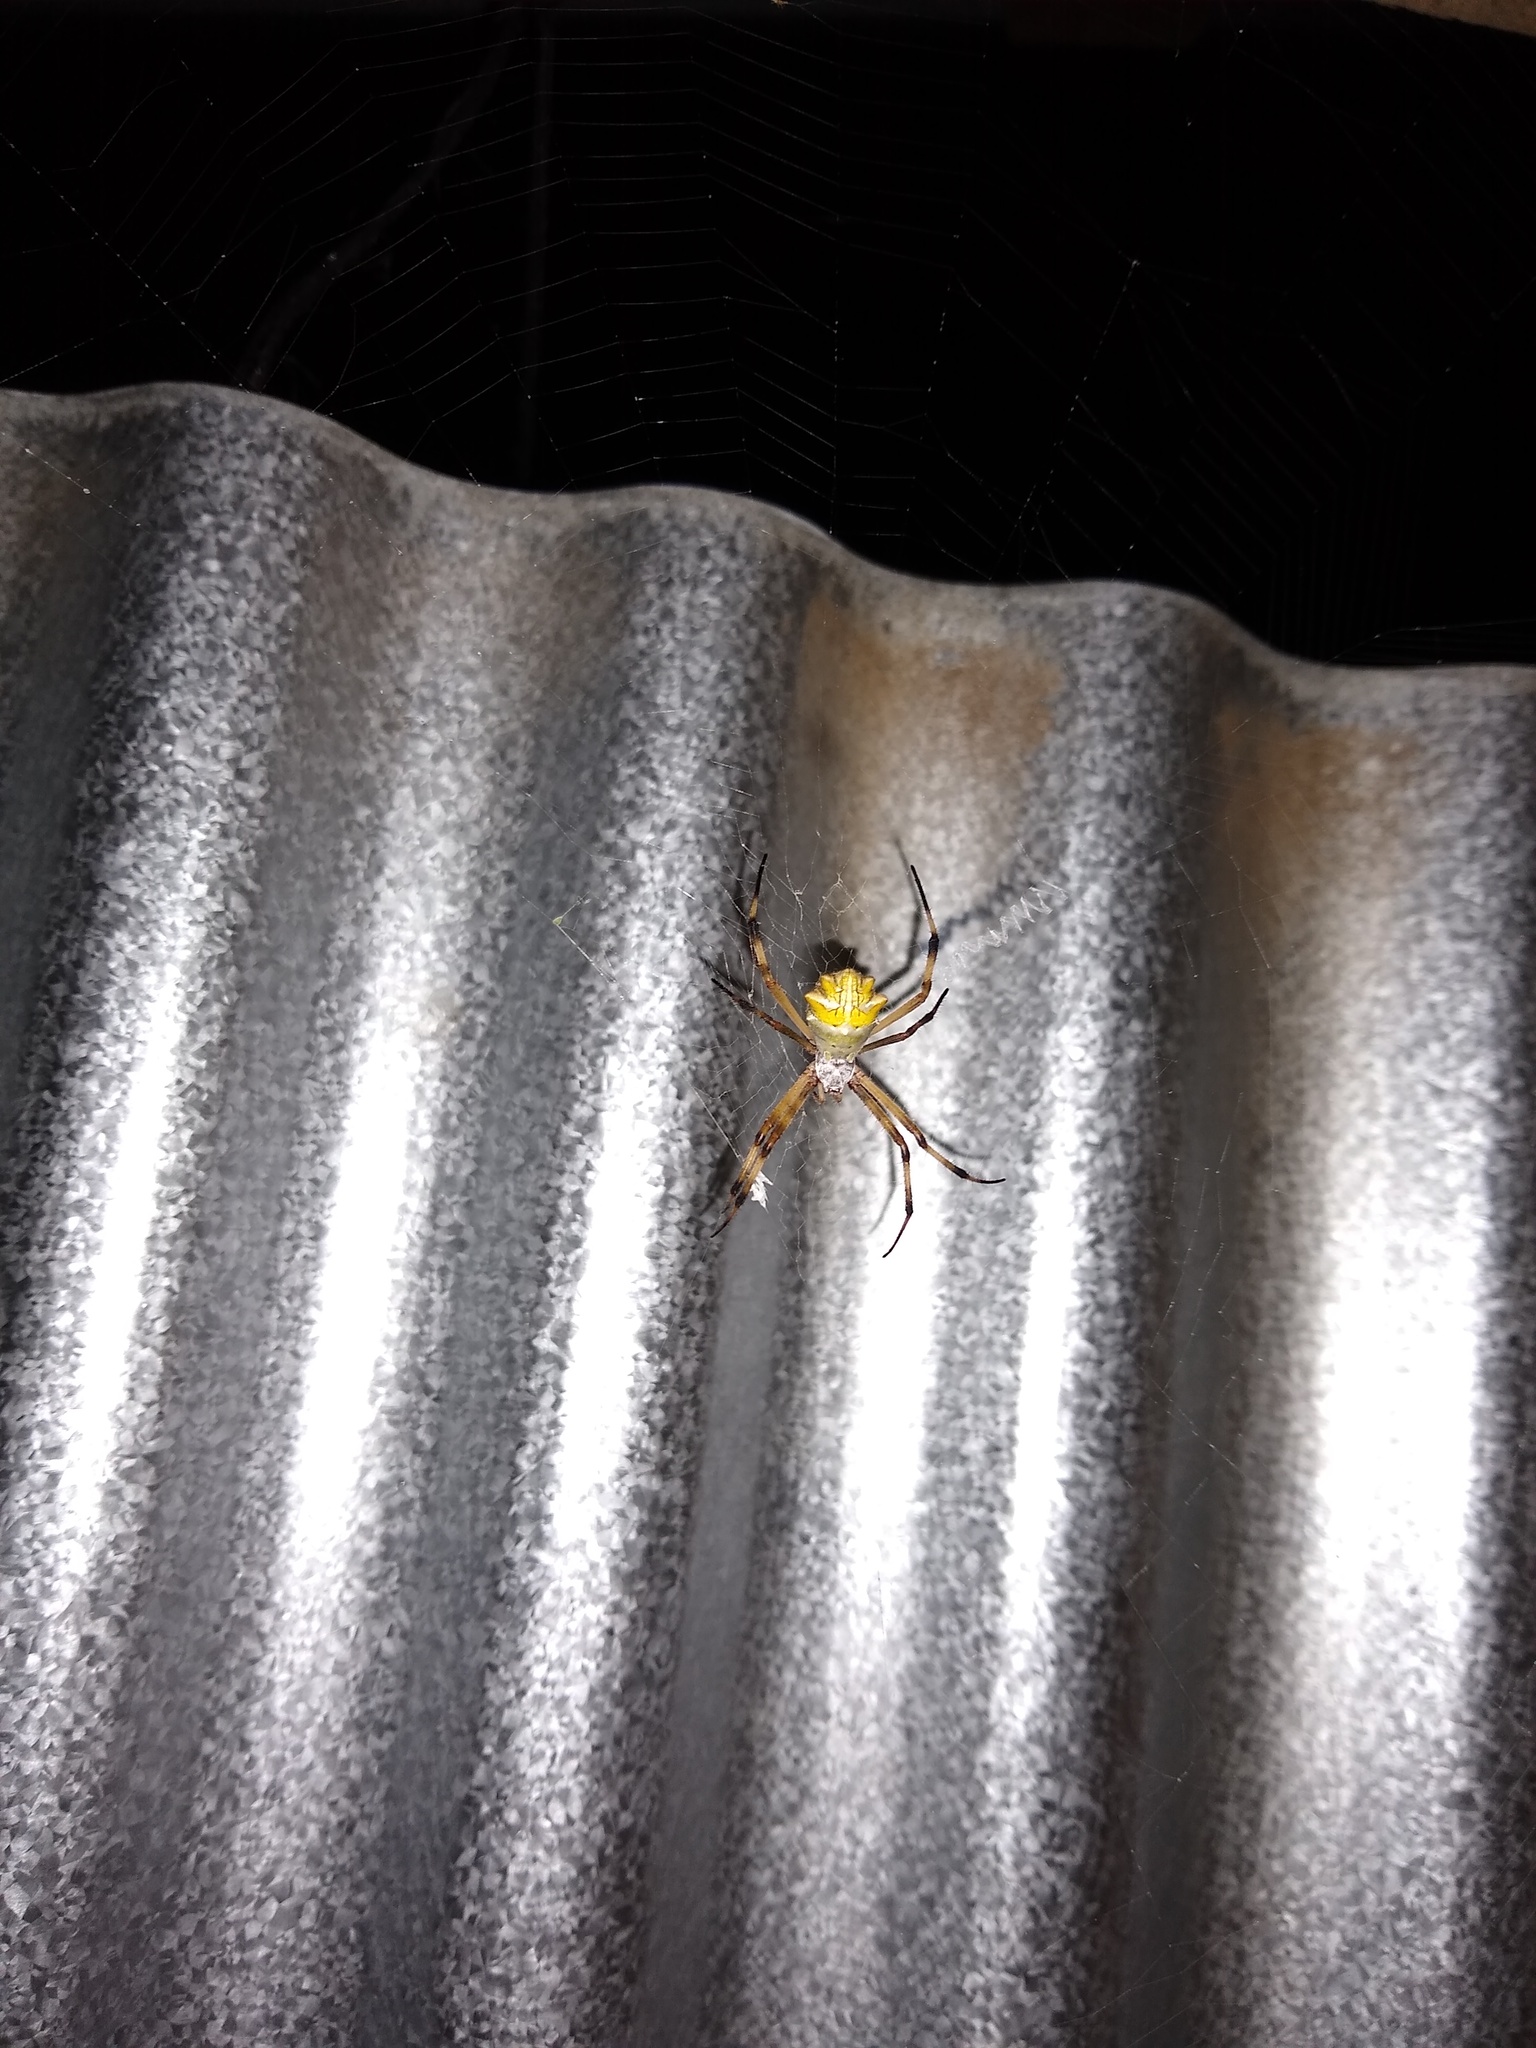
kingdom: Animalia
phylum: Arthropoda
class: Arachnida
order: Araneae
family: Araneidae
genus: Argiope
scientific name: Argiope argentata
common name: Orb weavers
